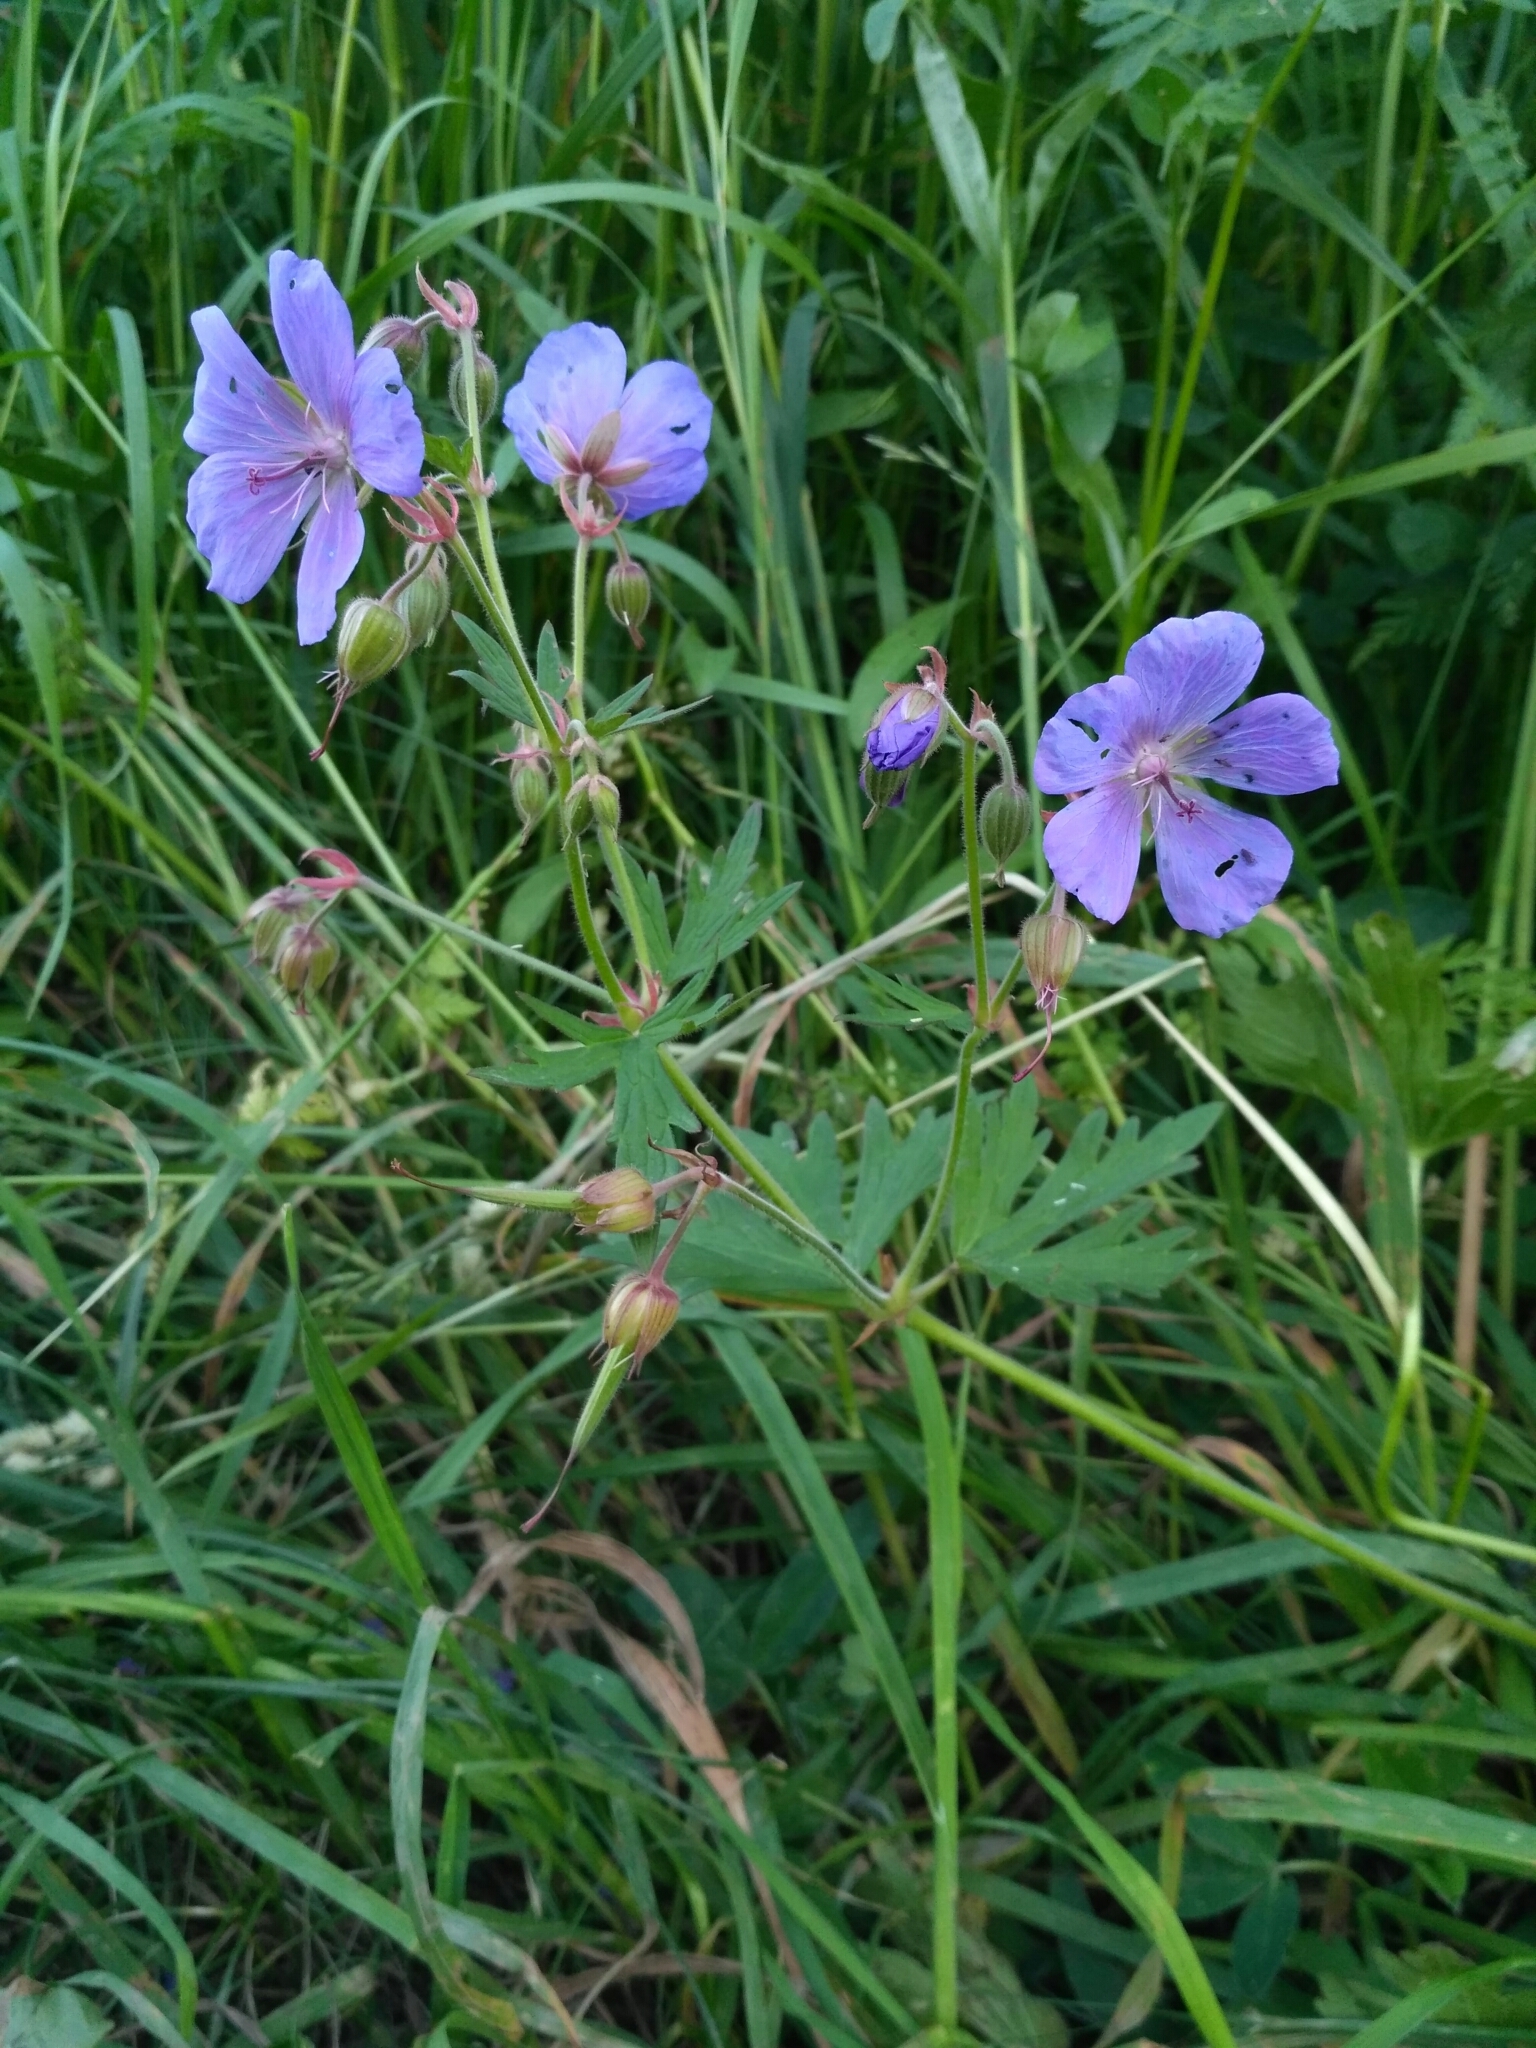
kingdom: Plantae
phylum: Tracheophyta
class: Magnoliopsida
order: Geraniales
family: Geraniaceae
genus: Geranium
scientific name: Geranium pratense
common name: Meadow crane's-bill
